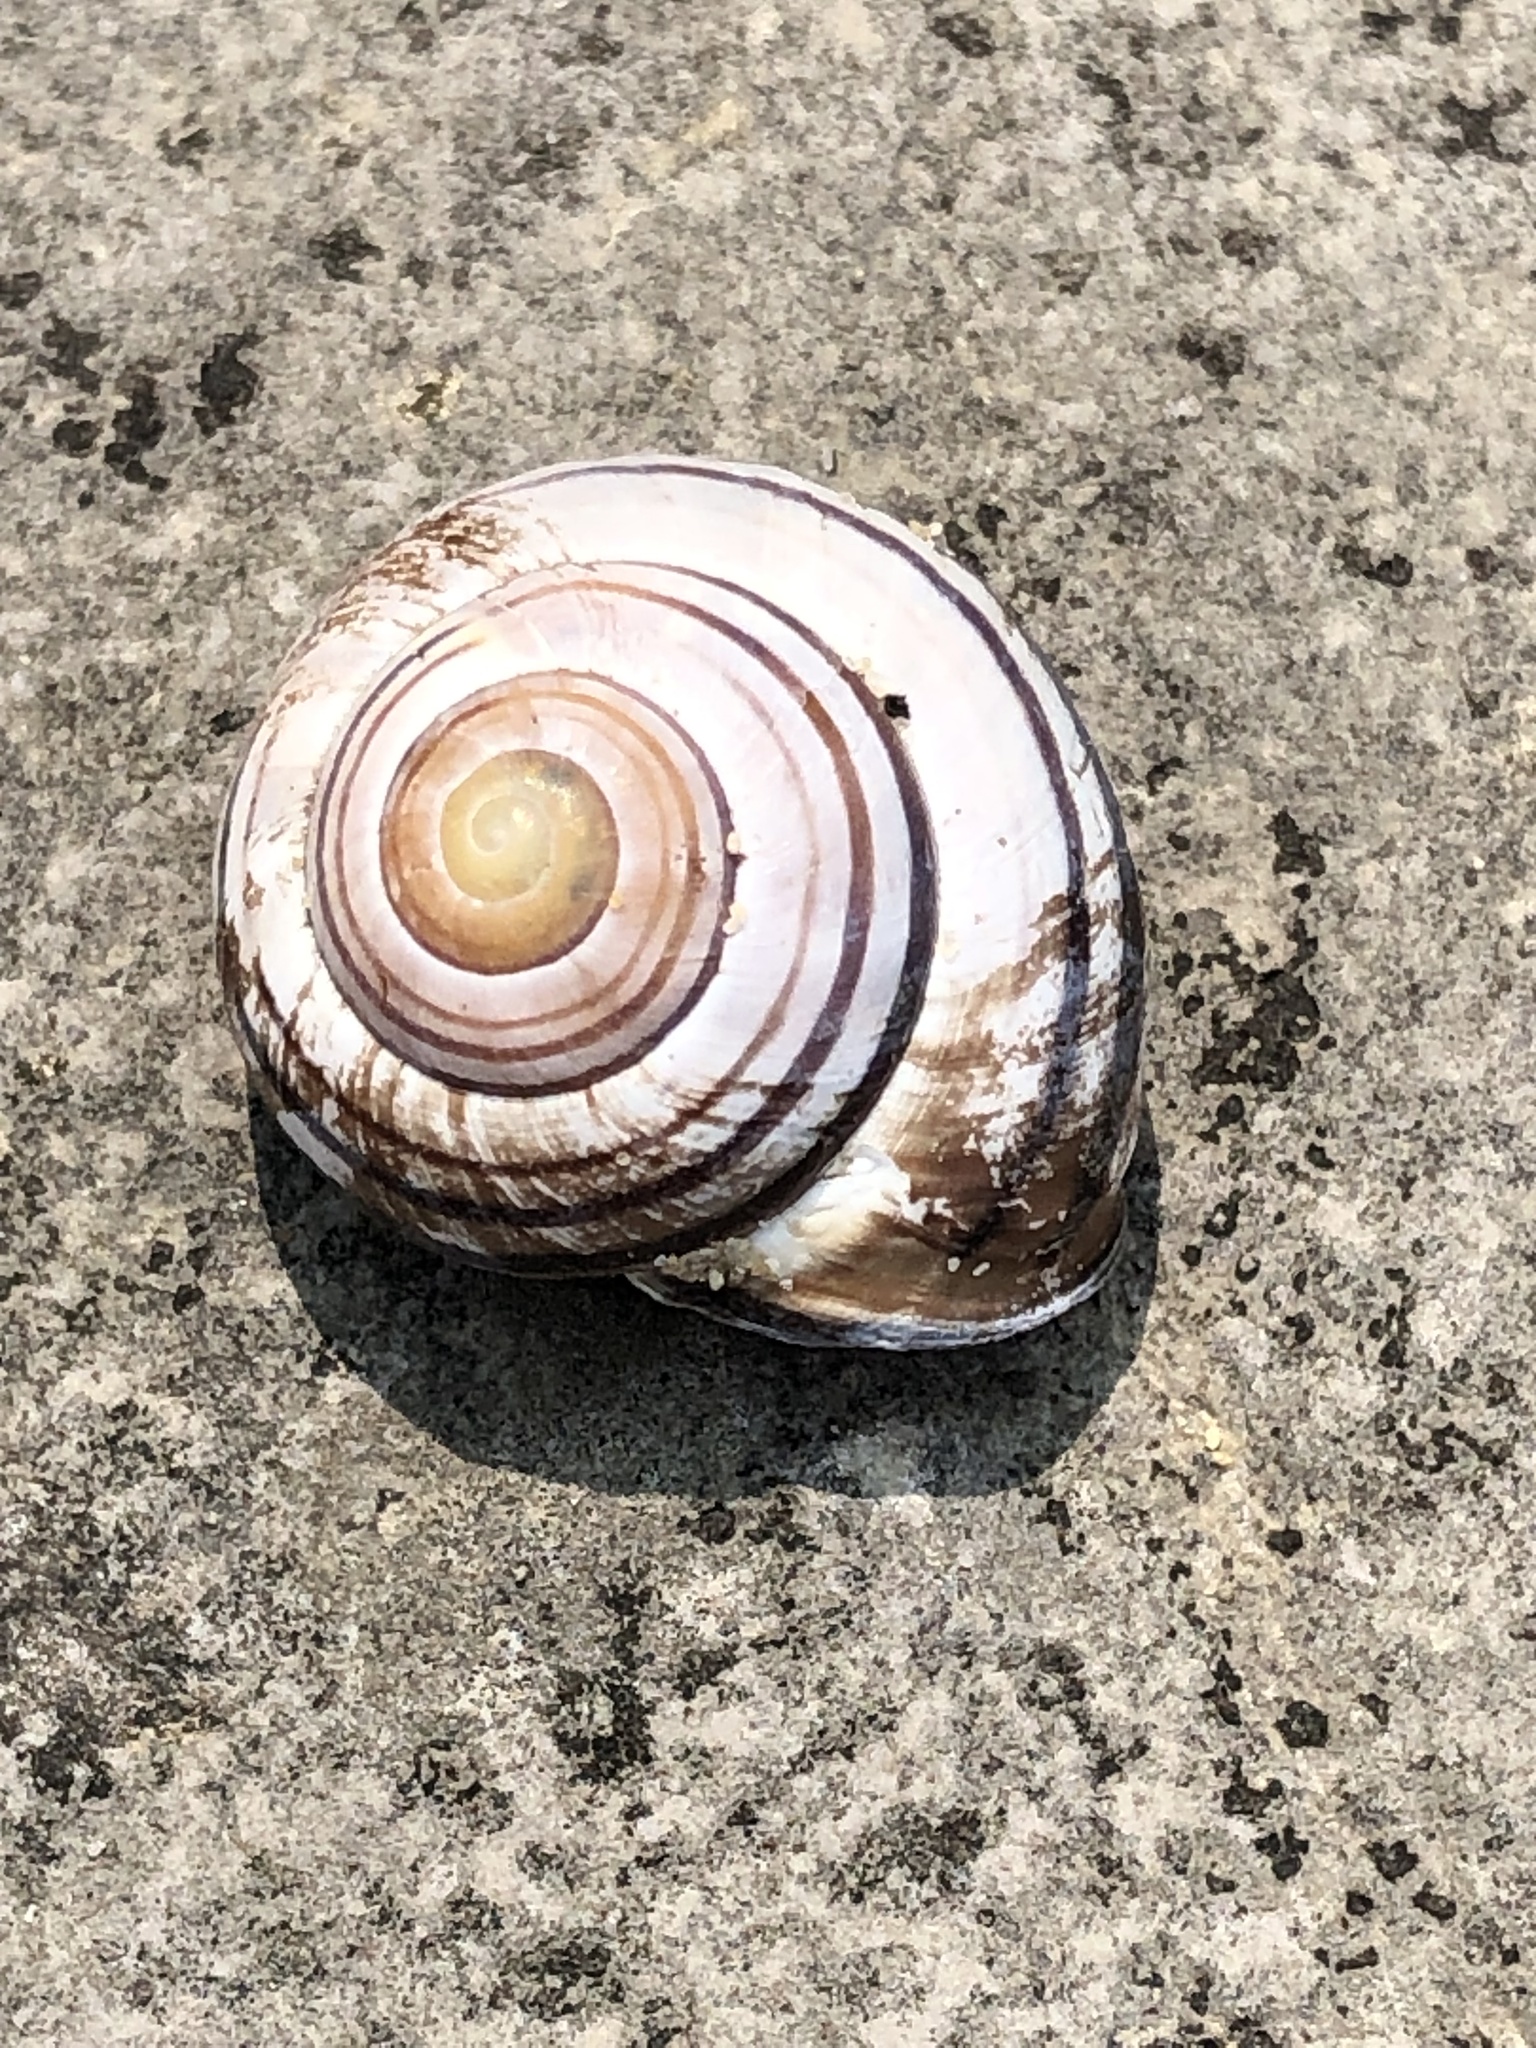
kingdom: Animalia
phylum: Mollusca
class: Gastropoda
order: Stylommatophora
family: Helicidae
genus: Cepaea
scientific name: Cepaea nemoralis
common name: Grovesnail
